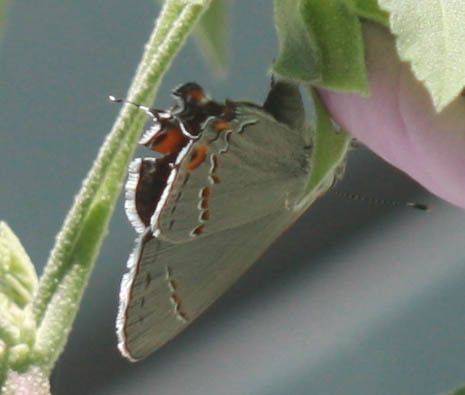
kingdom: Animalia
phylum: Arthropoda
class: Insecta
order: Lepidoptera
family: Lycaenidae
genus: Strymon
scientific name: Strymon melinus
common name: Gray hairstreak
